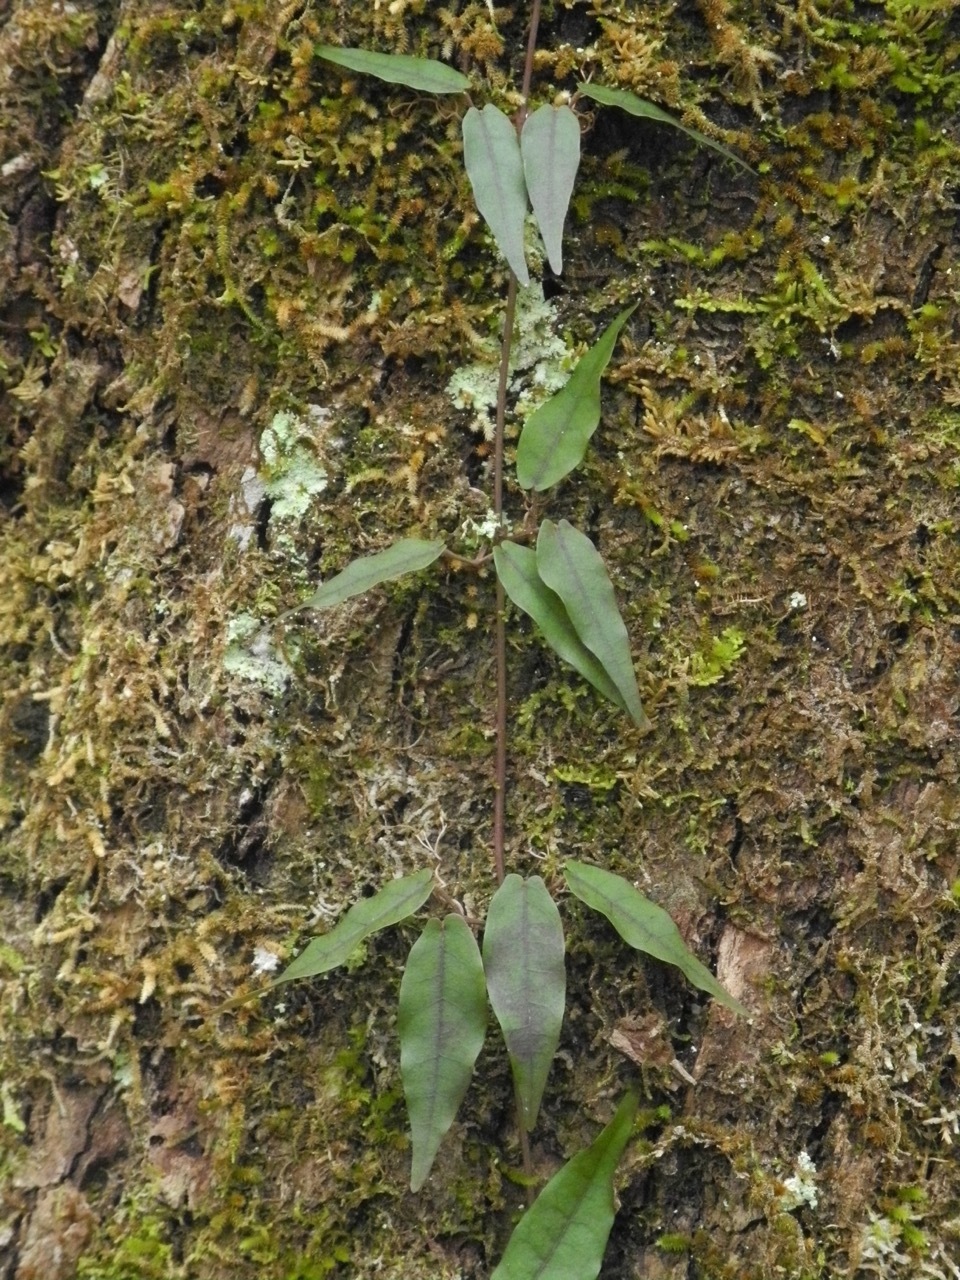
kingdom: Plantae
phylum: Tracheophyta
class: Magnoliopsida
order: Lamiales
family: Bignoniaceae
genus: Bignonia
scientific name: Bignonia capreolata
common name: Crossvine
